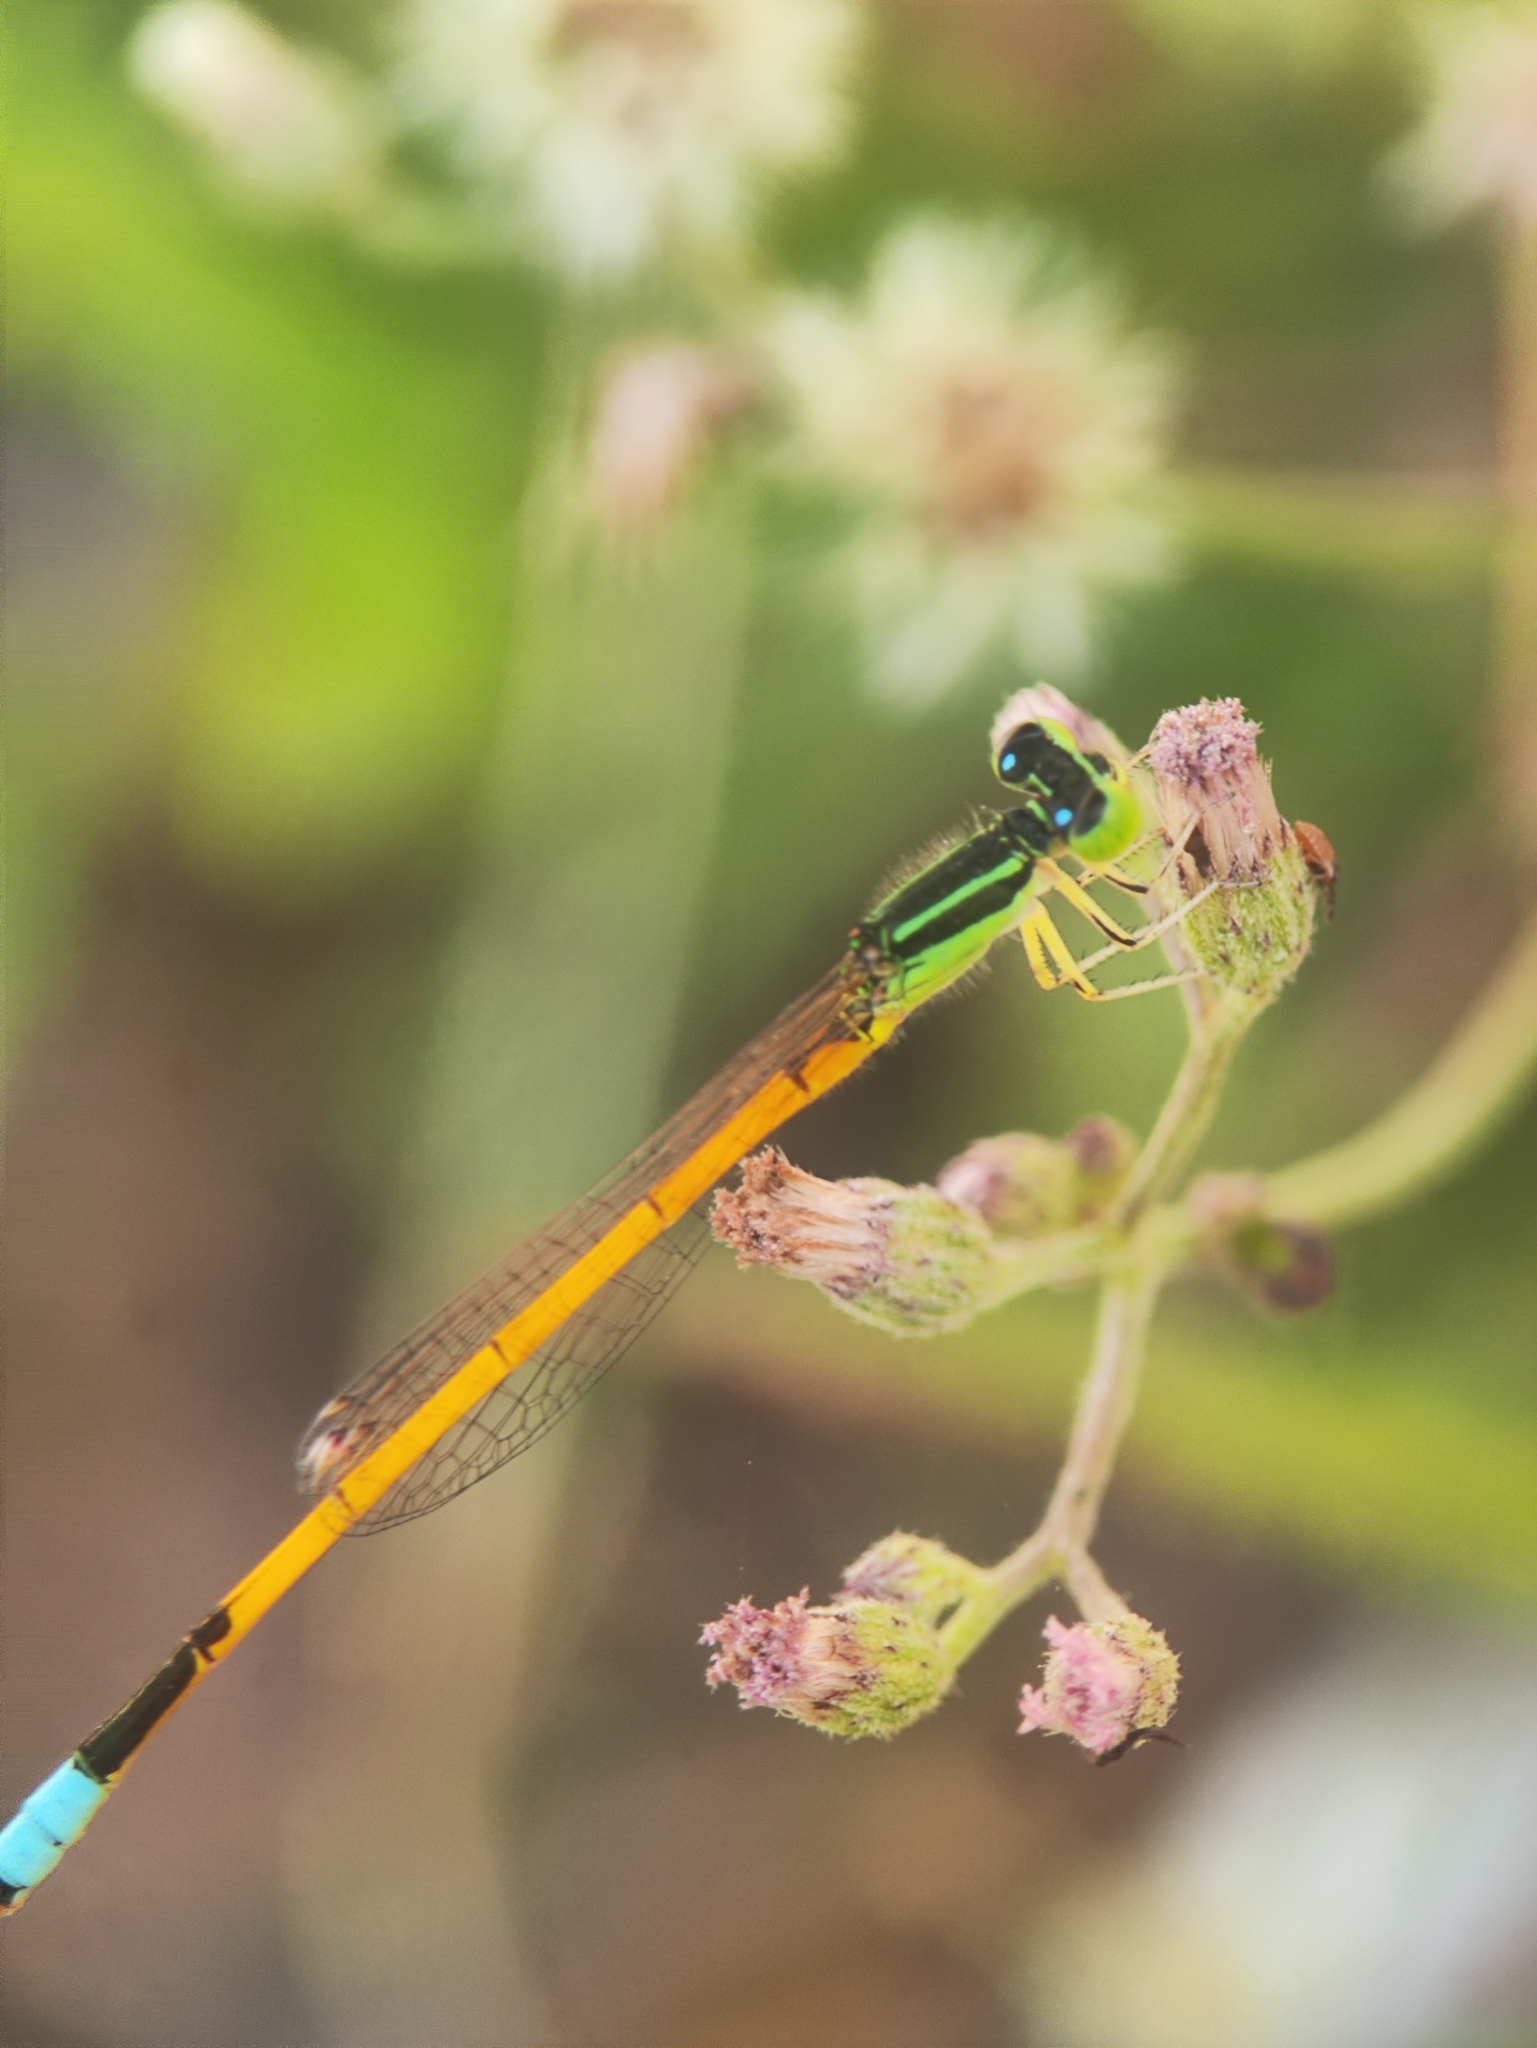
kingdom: Animalia
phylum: Arthropoda
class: Insecta
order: Odonata
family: Coenagrionidae
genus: Ischnura
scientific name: Ischnura rubilio
